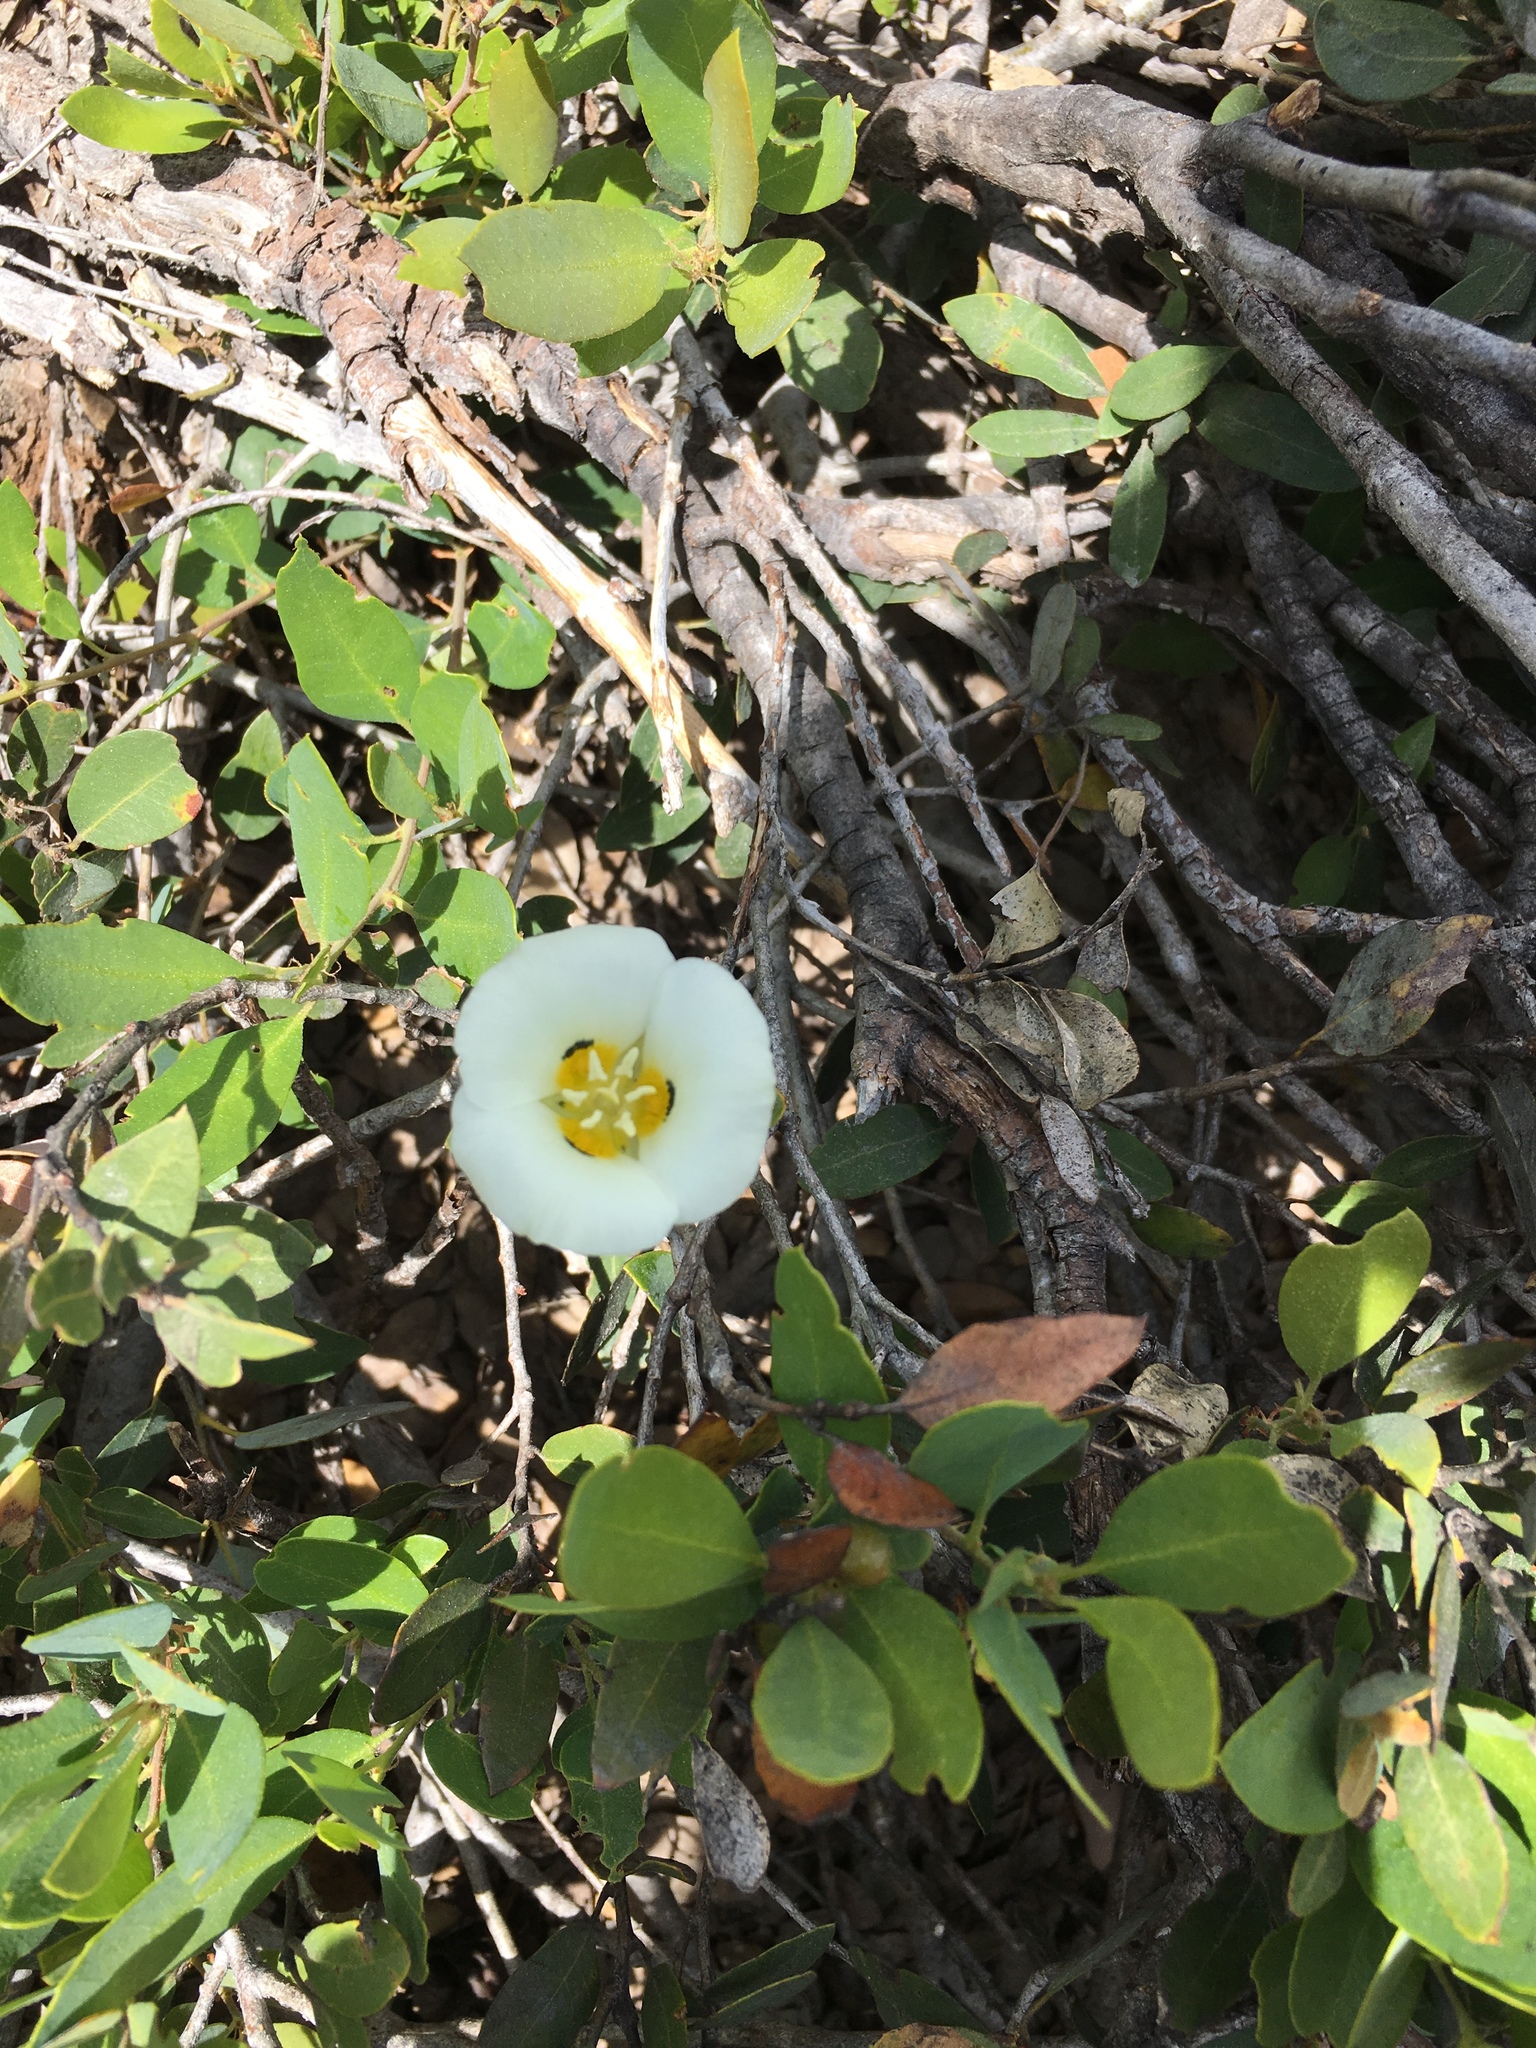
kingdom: Plantae
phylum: Tracheophyta
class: Liliopsida
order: Liliales
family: Liliaceae
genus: Calochortus
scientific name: Calochortus leichtlinii
